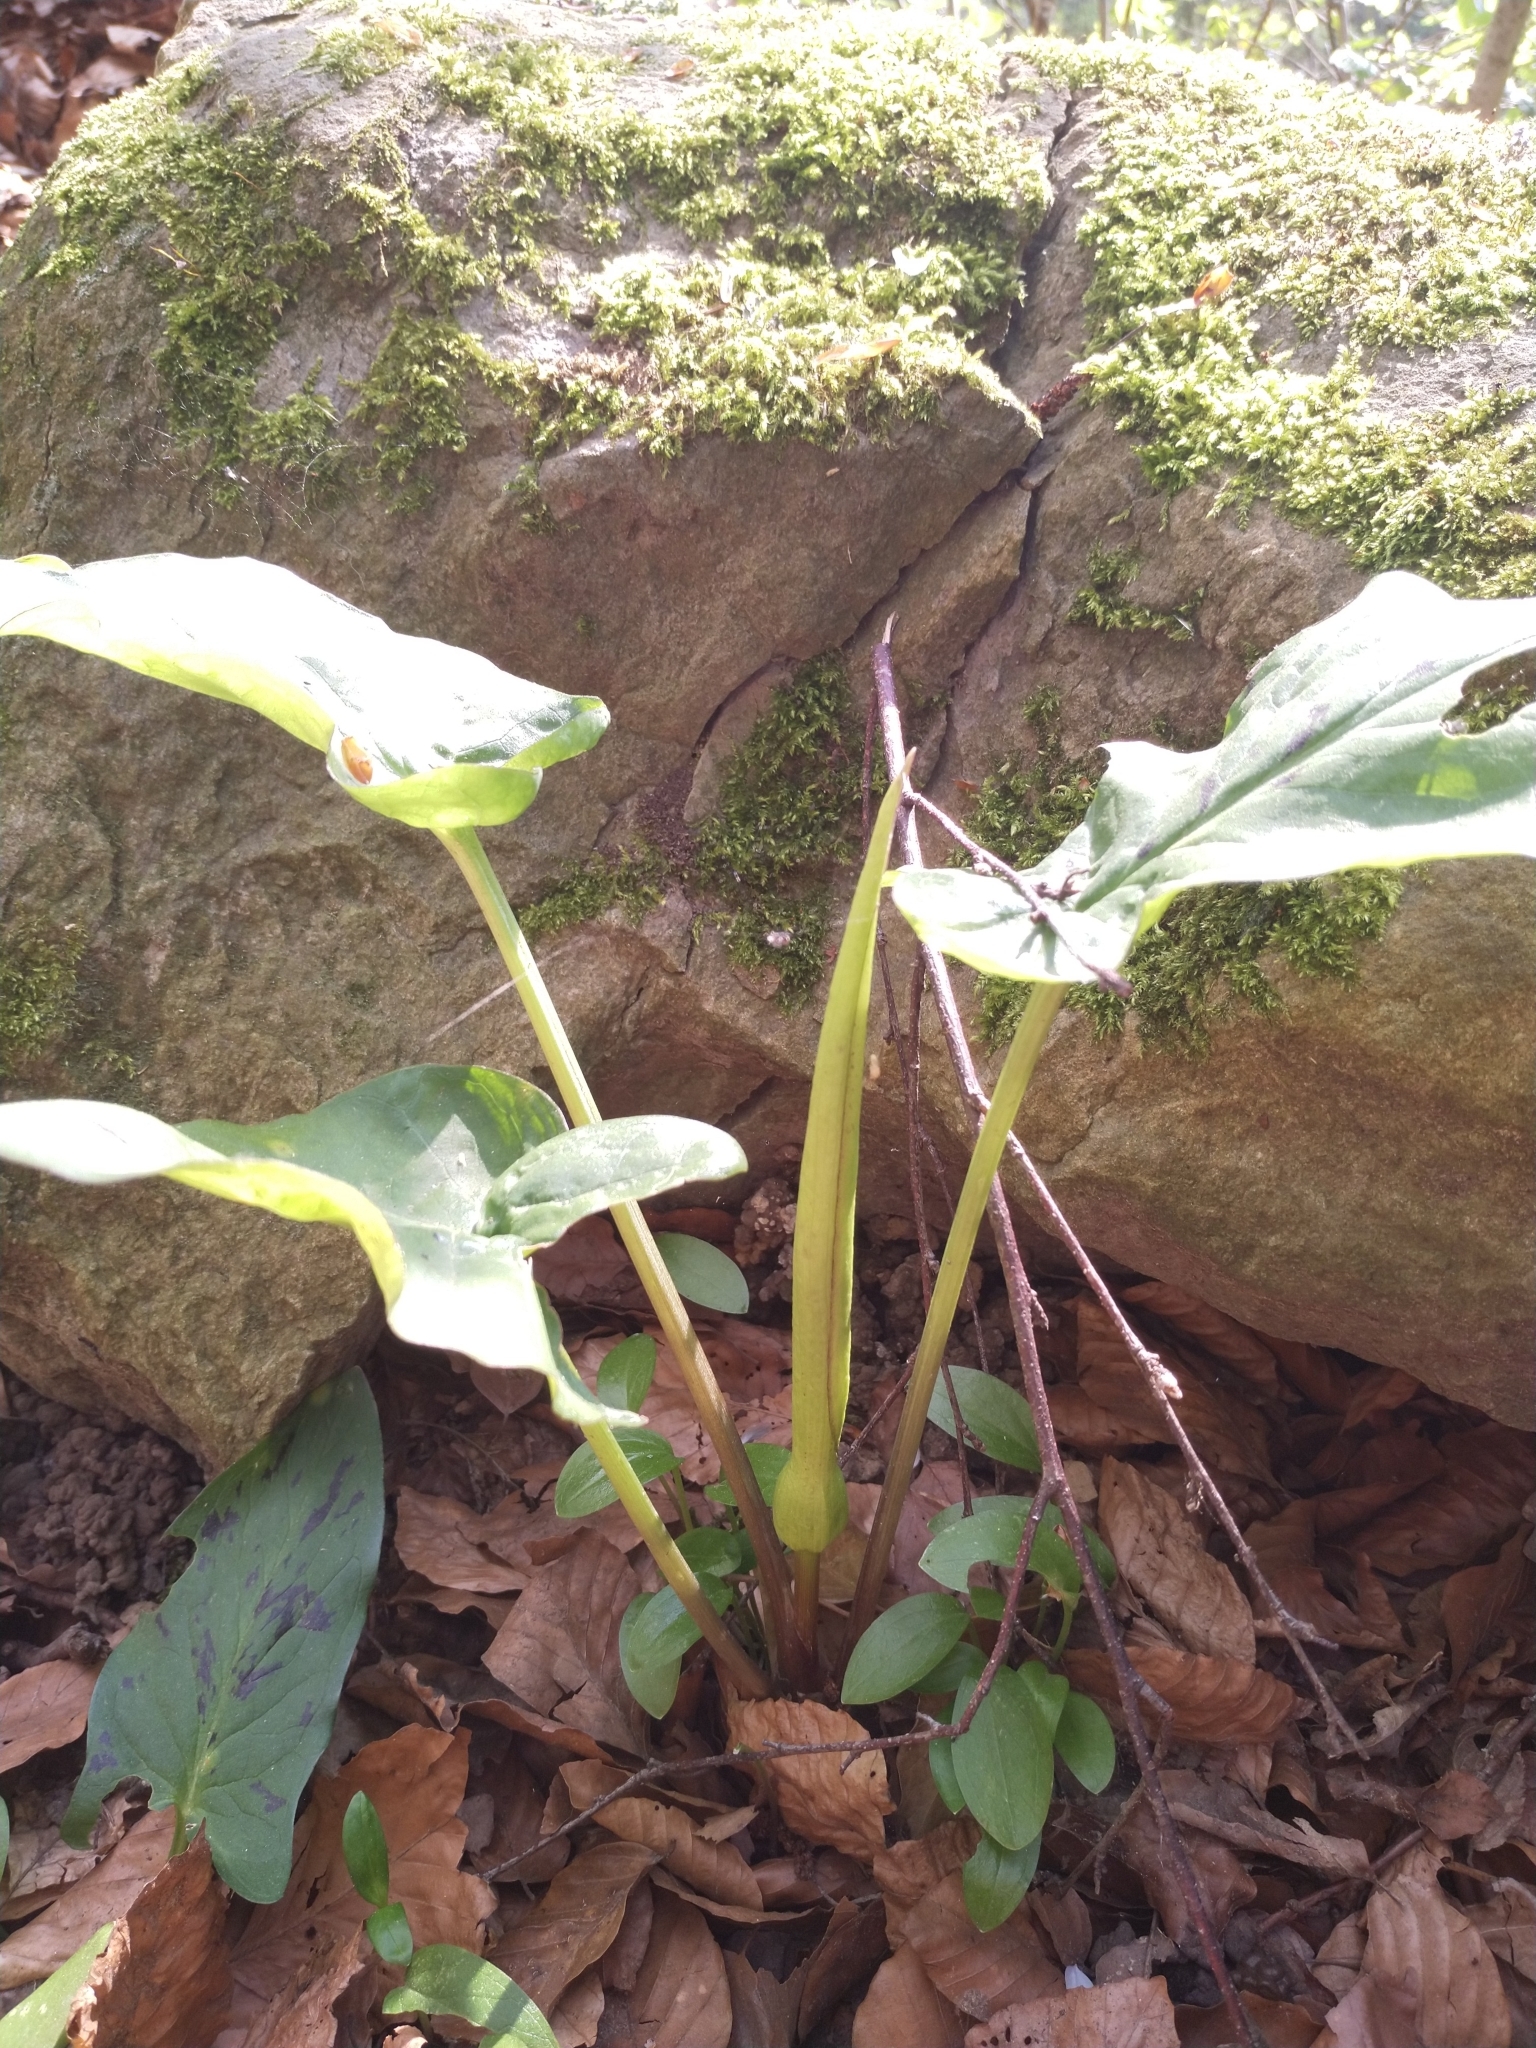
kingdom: Plantae
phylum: Tracheophyta
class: Liliopsida
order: Alismatales
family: Araceae
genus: Arum
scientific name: Arum maculatum
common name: Lords-and-ladies
